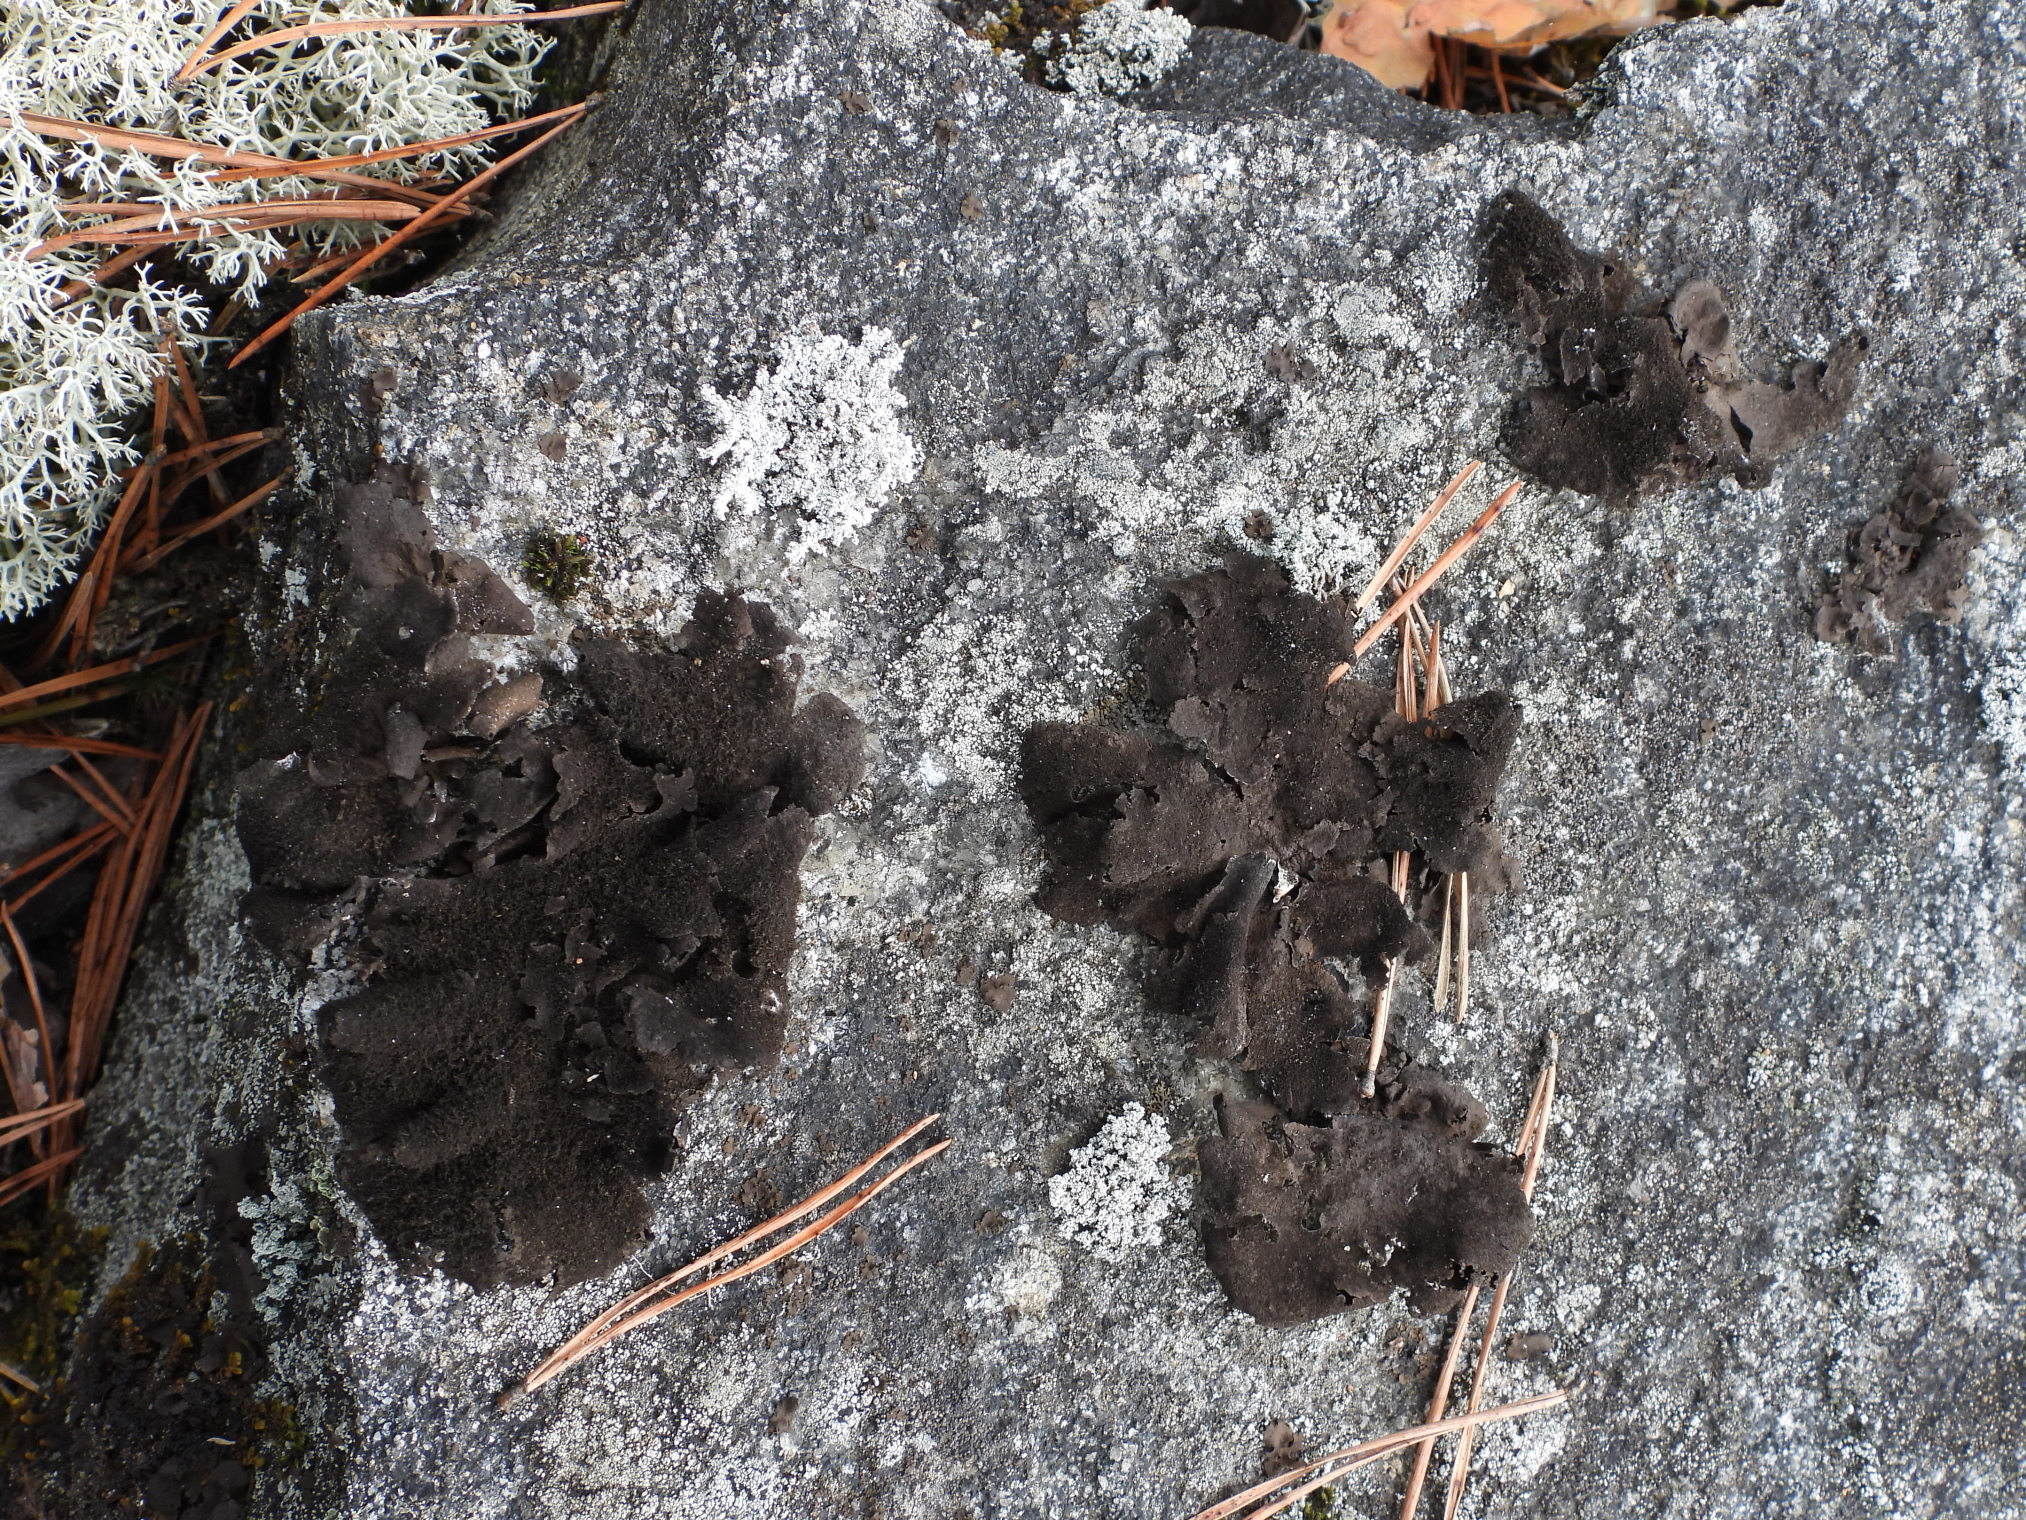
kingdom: Fungi
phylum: Ascomycota
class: Lecanoromycetes
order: Umbilicariales
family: Umbilicariaceae
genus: Umbilicaria
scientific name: Umbilicaria deusta
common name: Peppered rock tripe
